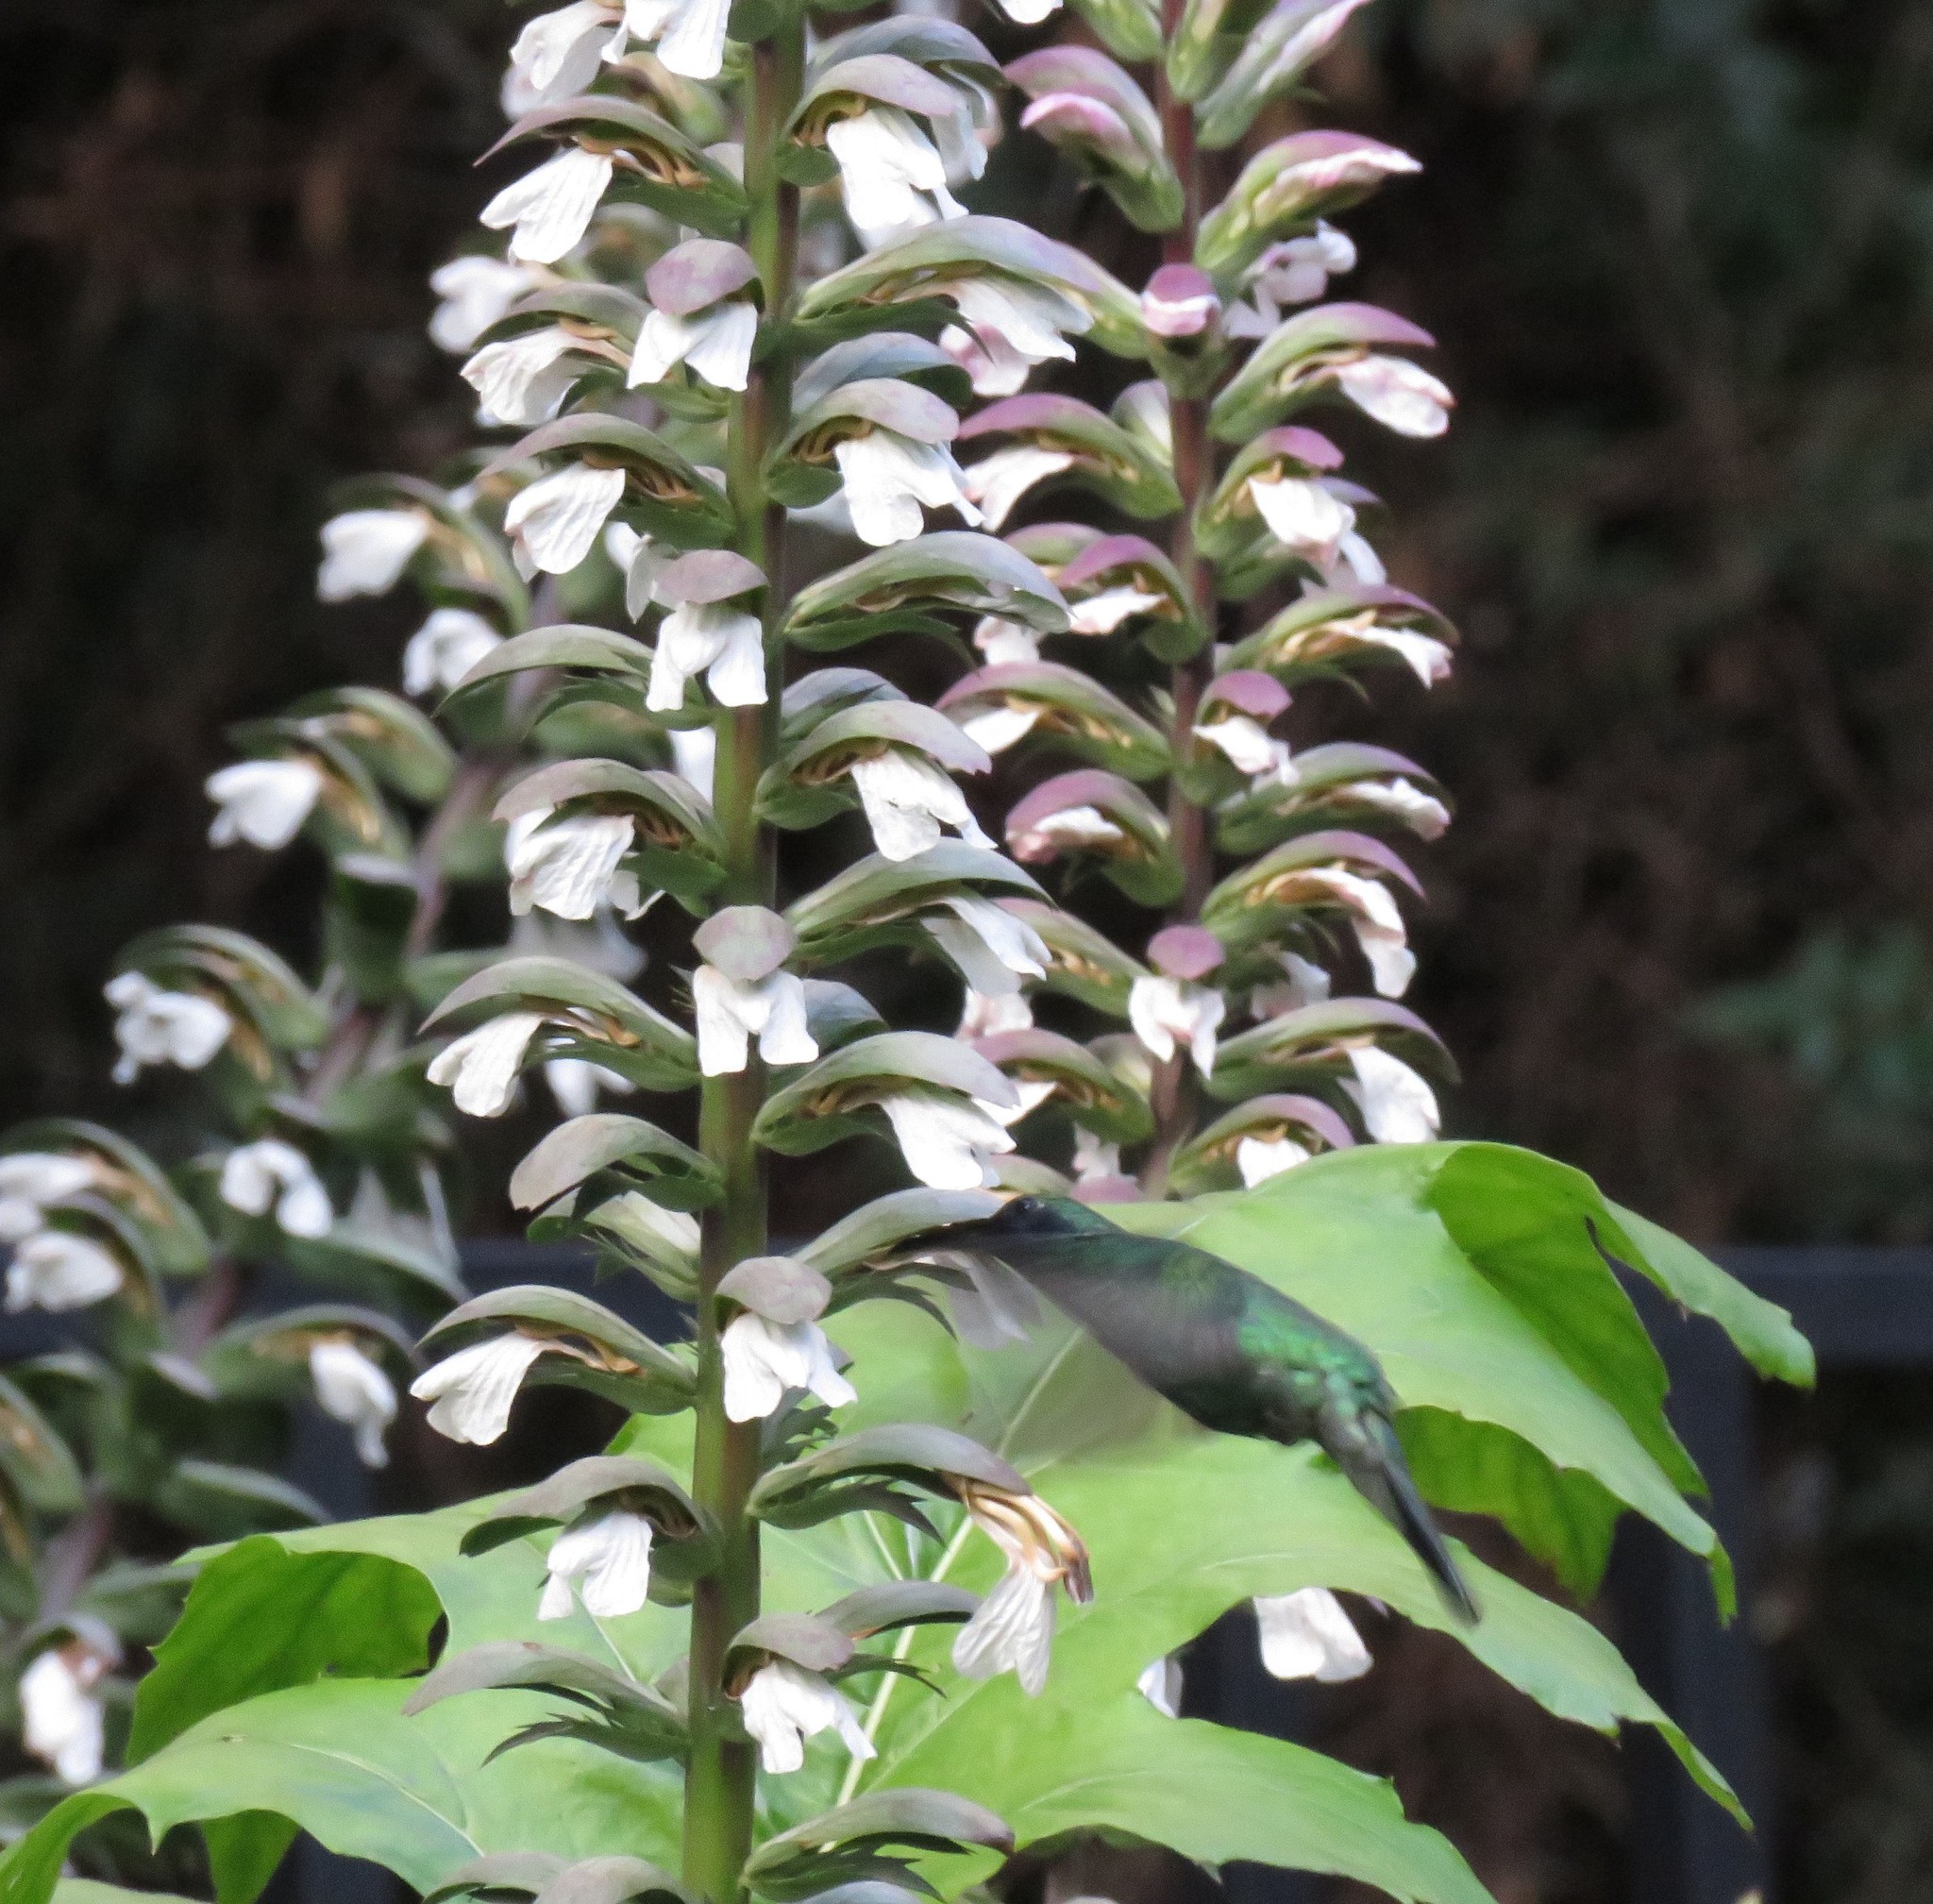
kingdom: Animalia
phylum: Chordata
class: Aves
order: Apodiformes
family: Trochilidae
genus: Colibri
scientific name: Colibri coruscans
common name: Sparkling violetear
